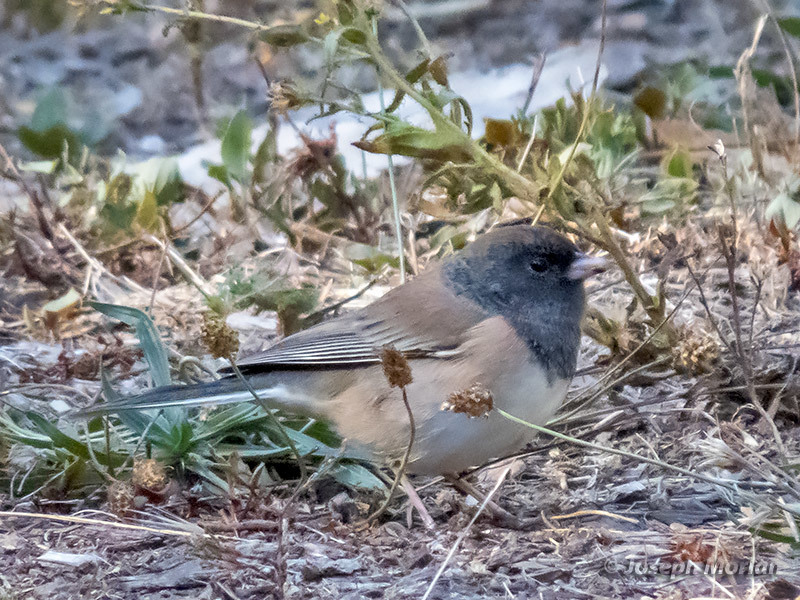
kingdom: Animalia
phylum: Chordata
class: Aves
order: Passeriformes
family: Passerellidae
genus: Junco
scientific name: Junco hyemalis
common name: Dark-eyed junco
